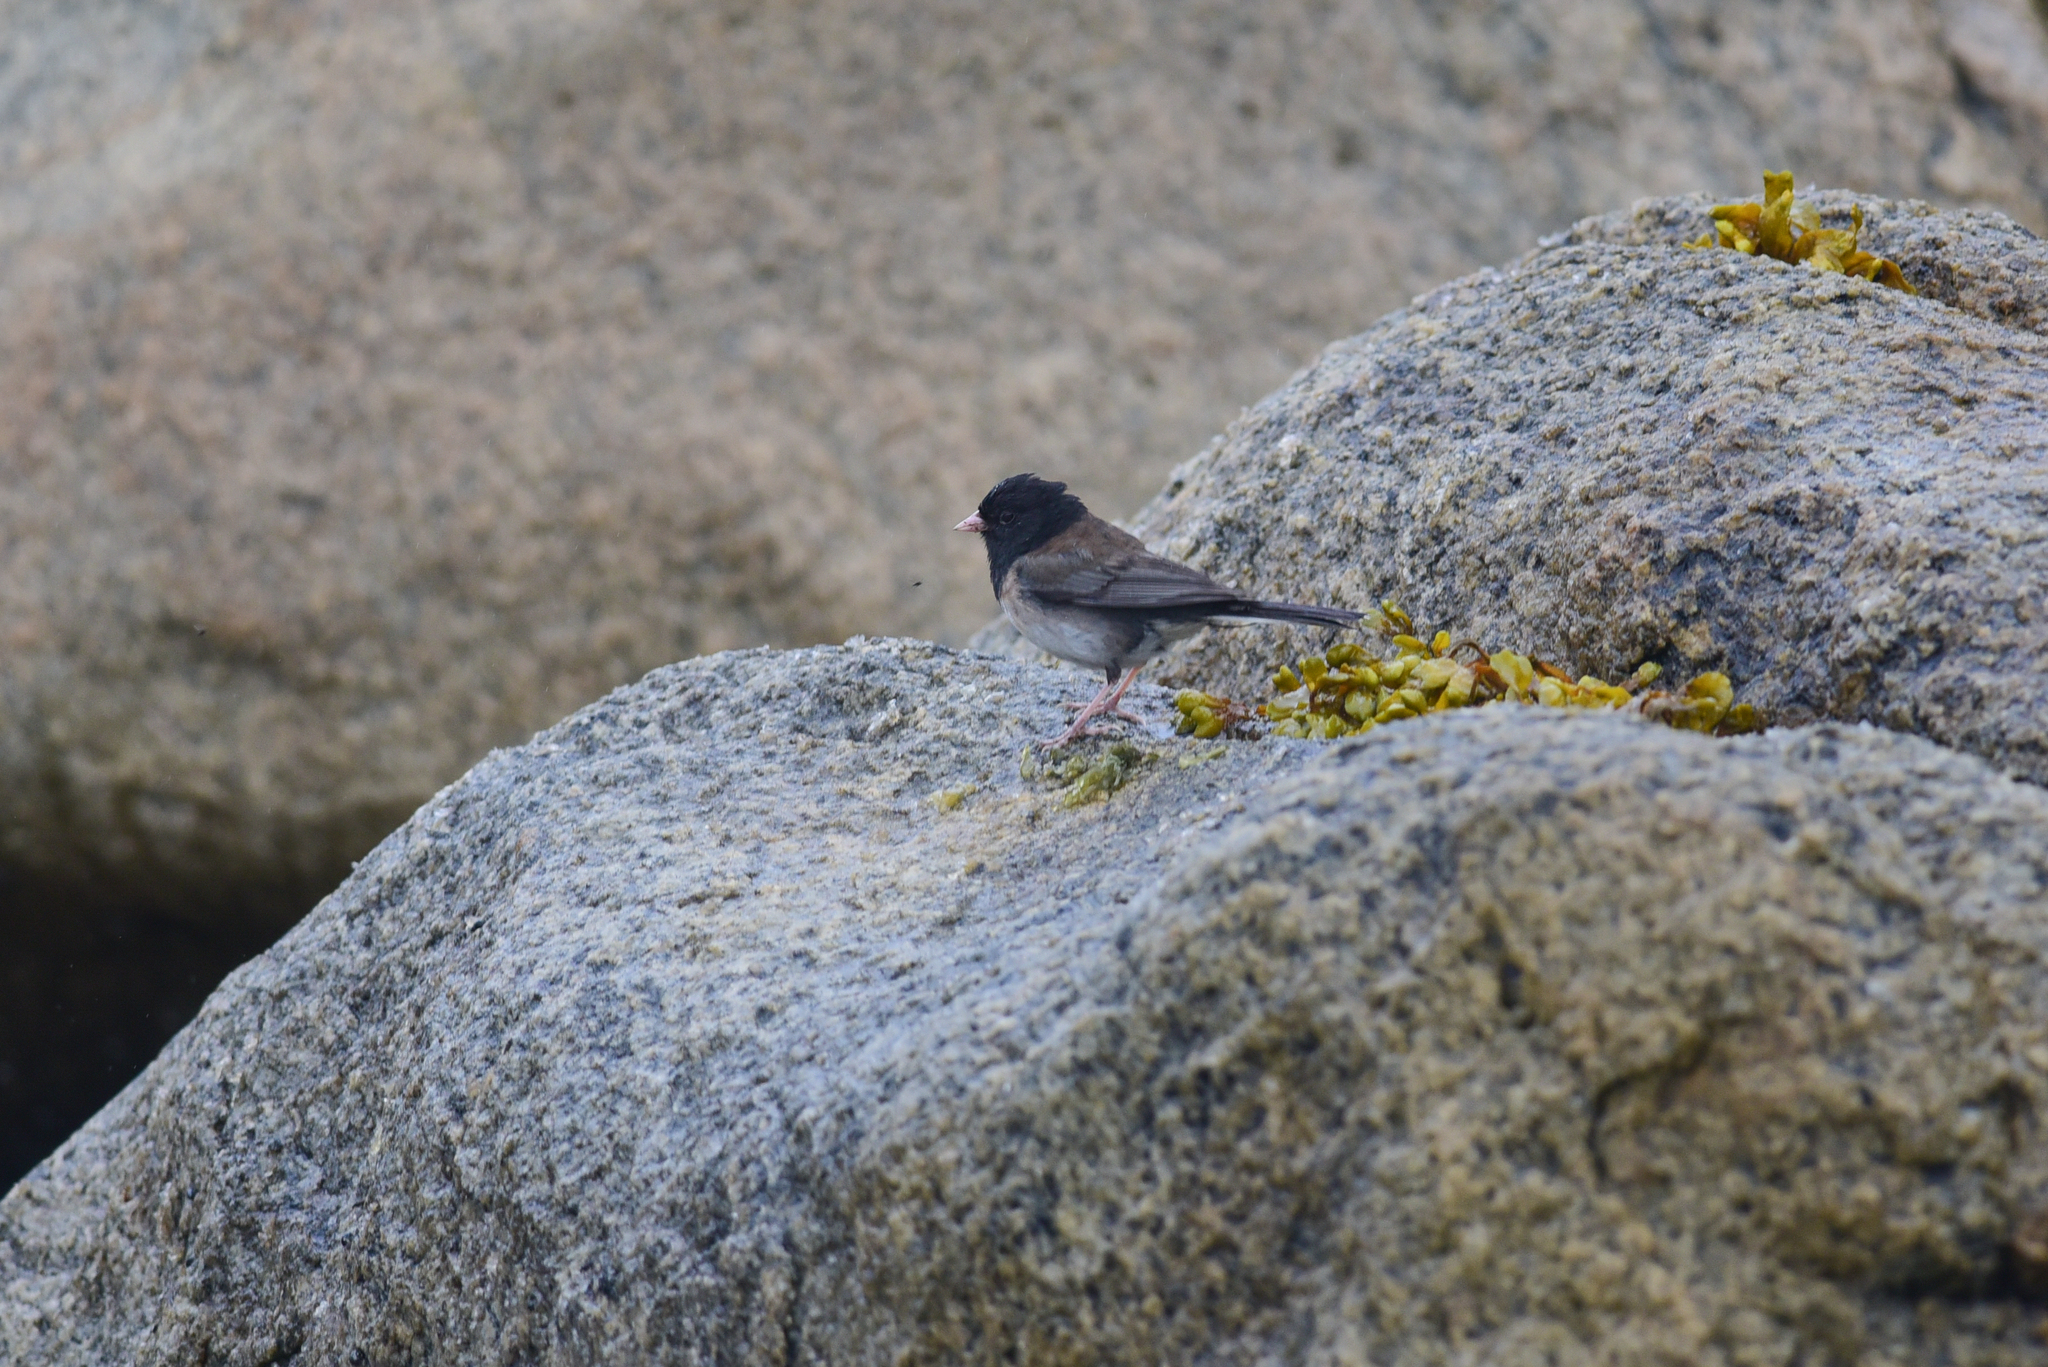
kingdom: Animalia
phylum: Chordata
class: Aves
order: Passeriformes
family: Passerellidae
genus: Junco
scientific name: Junco hyemalis
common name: Dark-eyed junco
